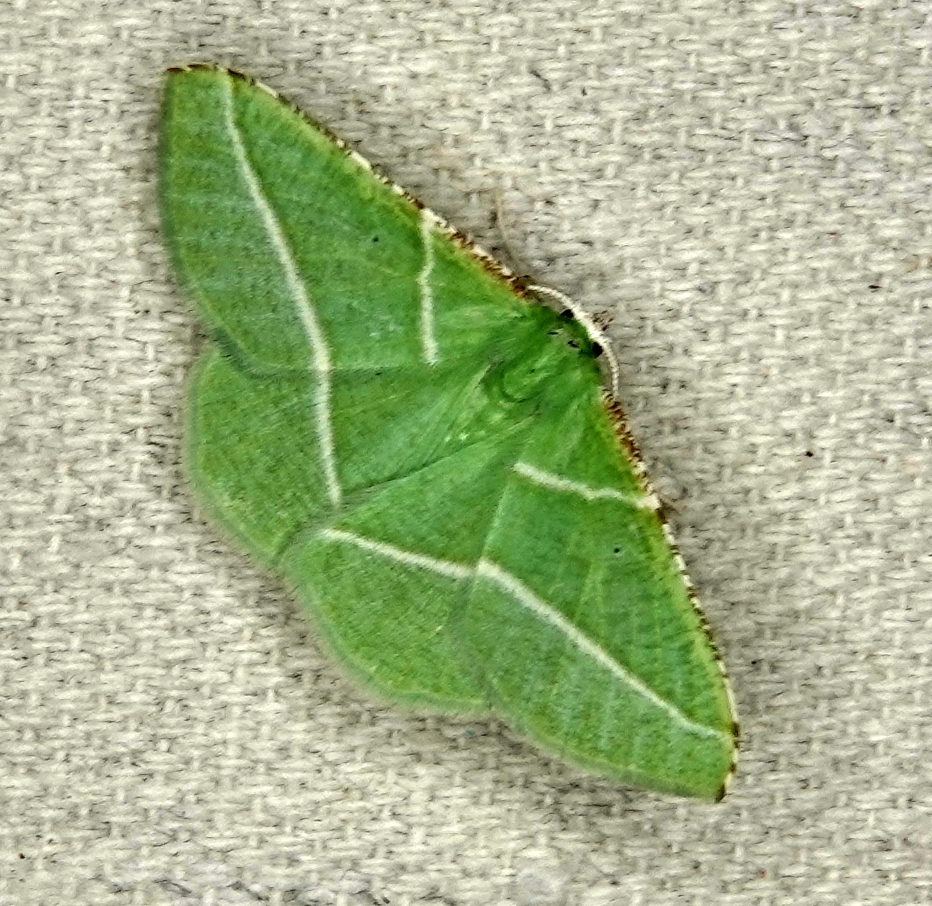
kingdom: Animalia
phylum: Arthropoda
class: Insecta
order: Lepidoptera
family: Geometridae
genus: Dichorda
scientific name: Dichorda rectaria
